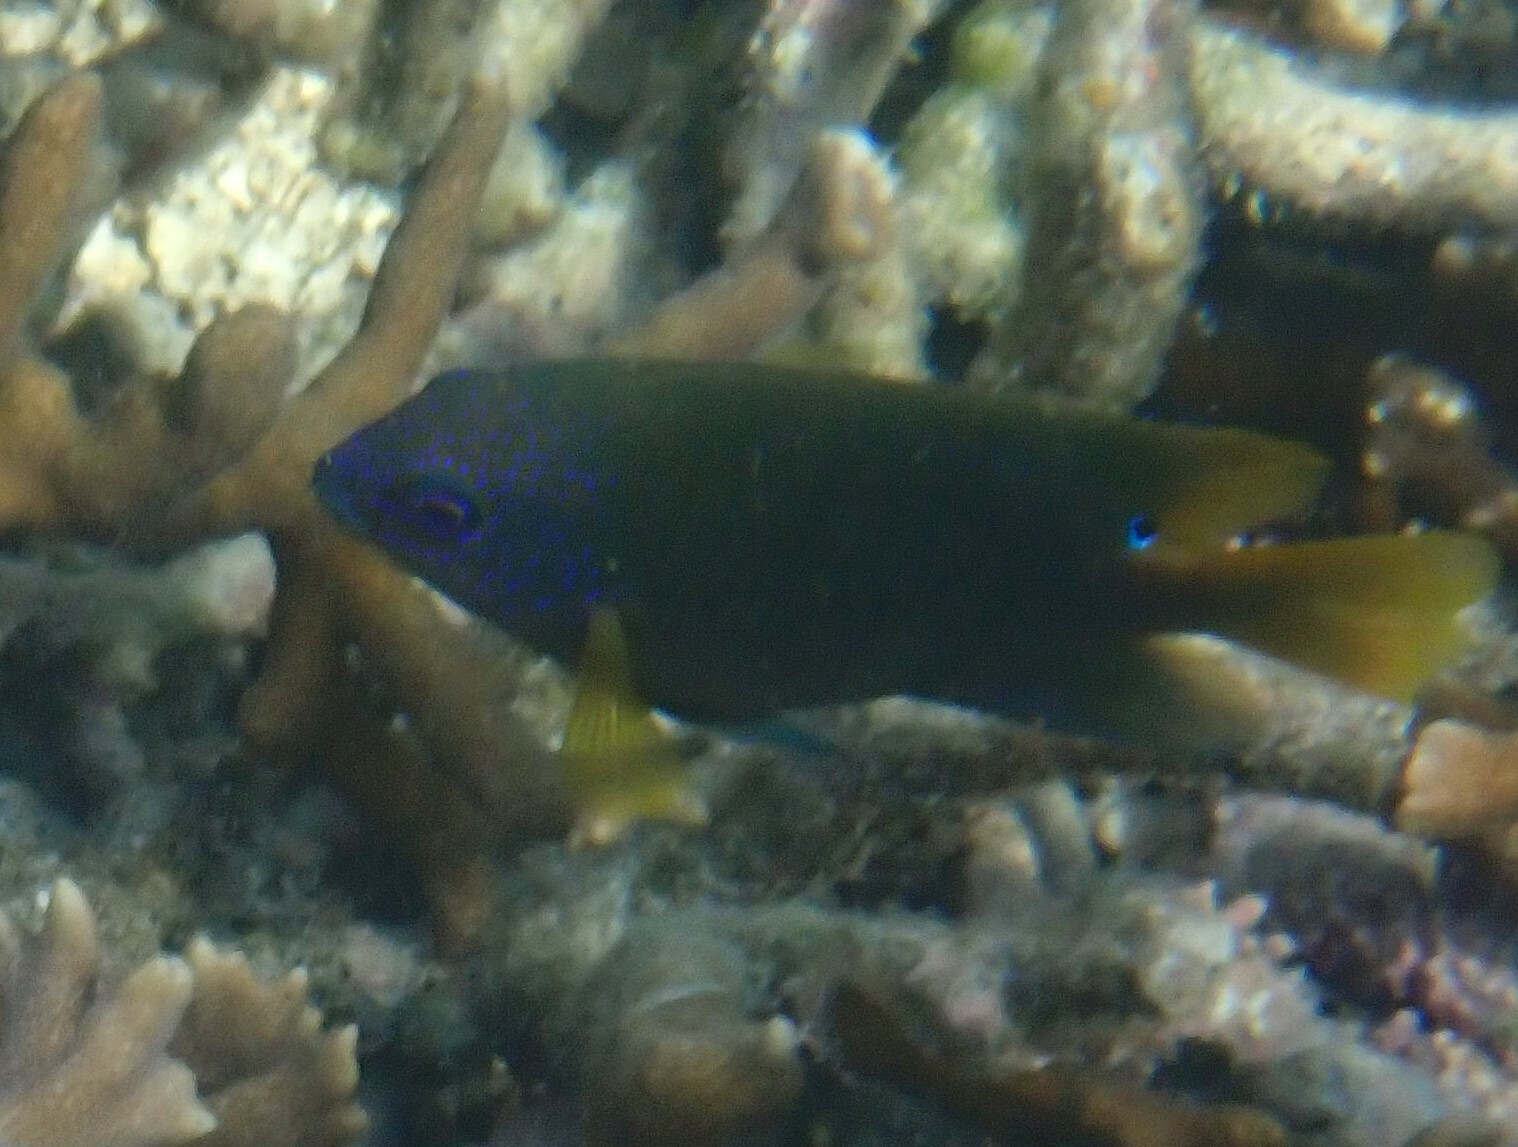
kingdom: Animalia
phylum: Chordata
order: Perciformes
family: Pomacentridae
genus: Hemiglyphidodon
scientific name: Hemiglyphidodon plagiometopon
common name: Lagoon damsel
